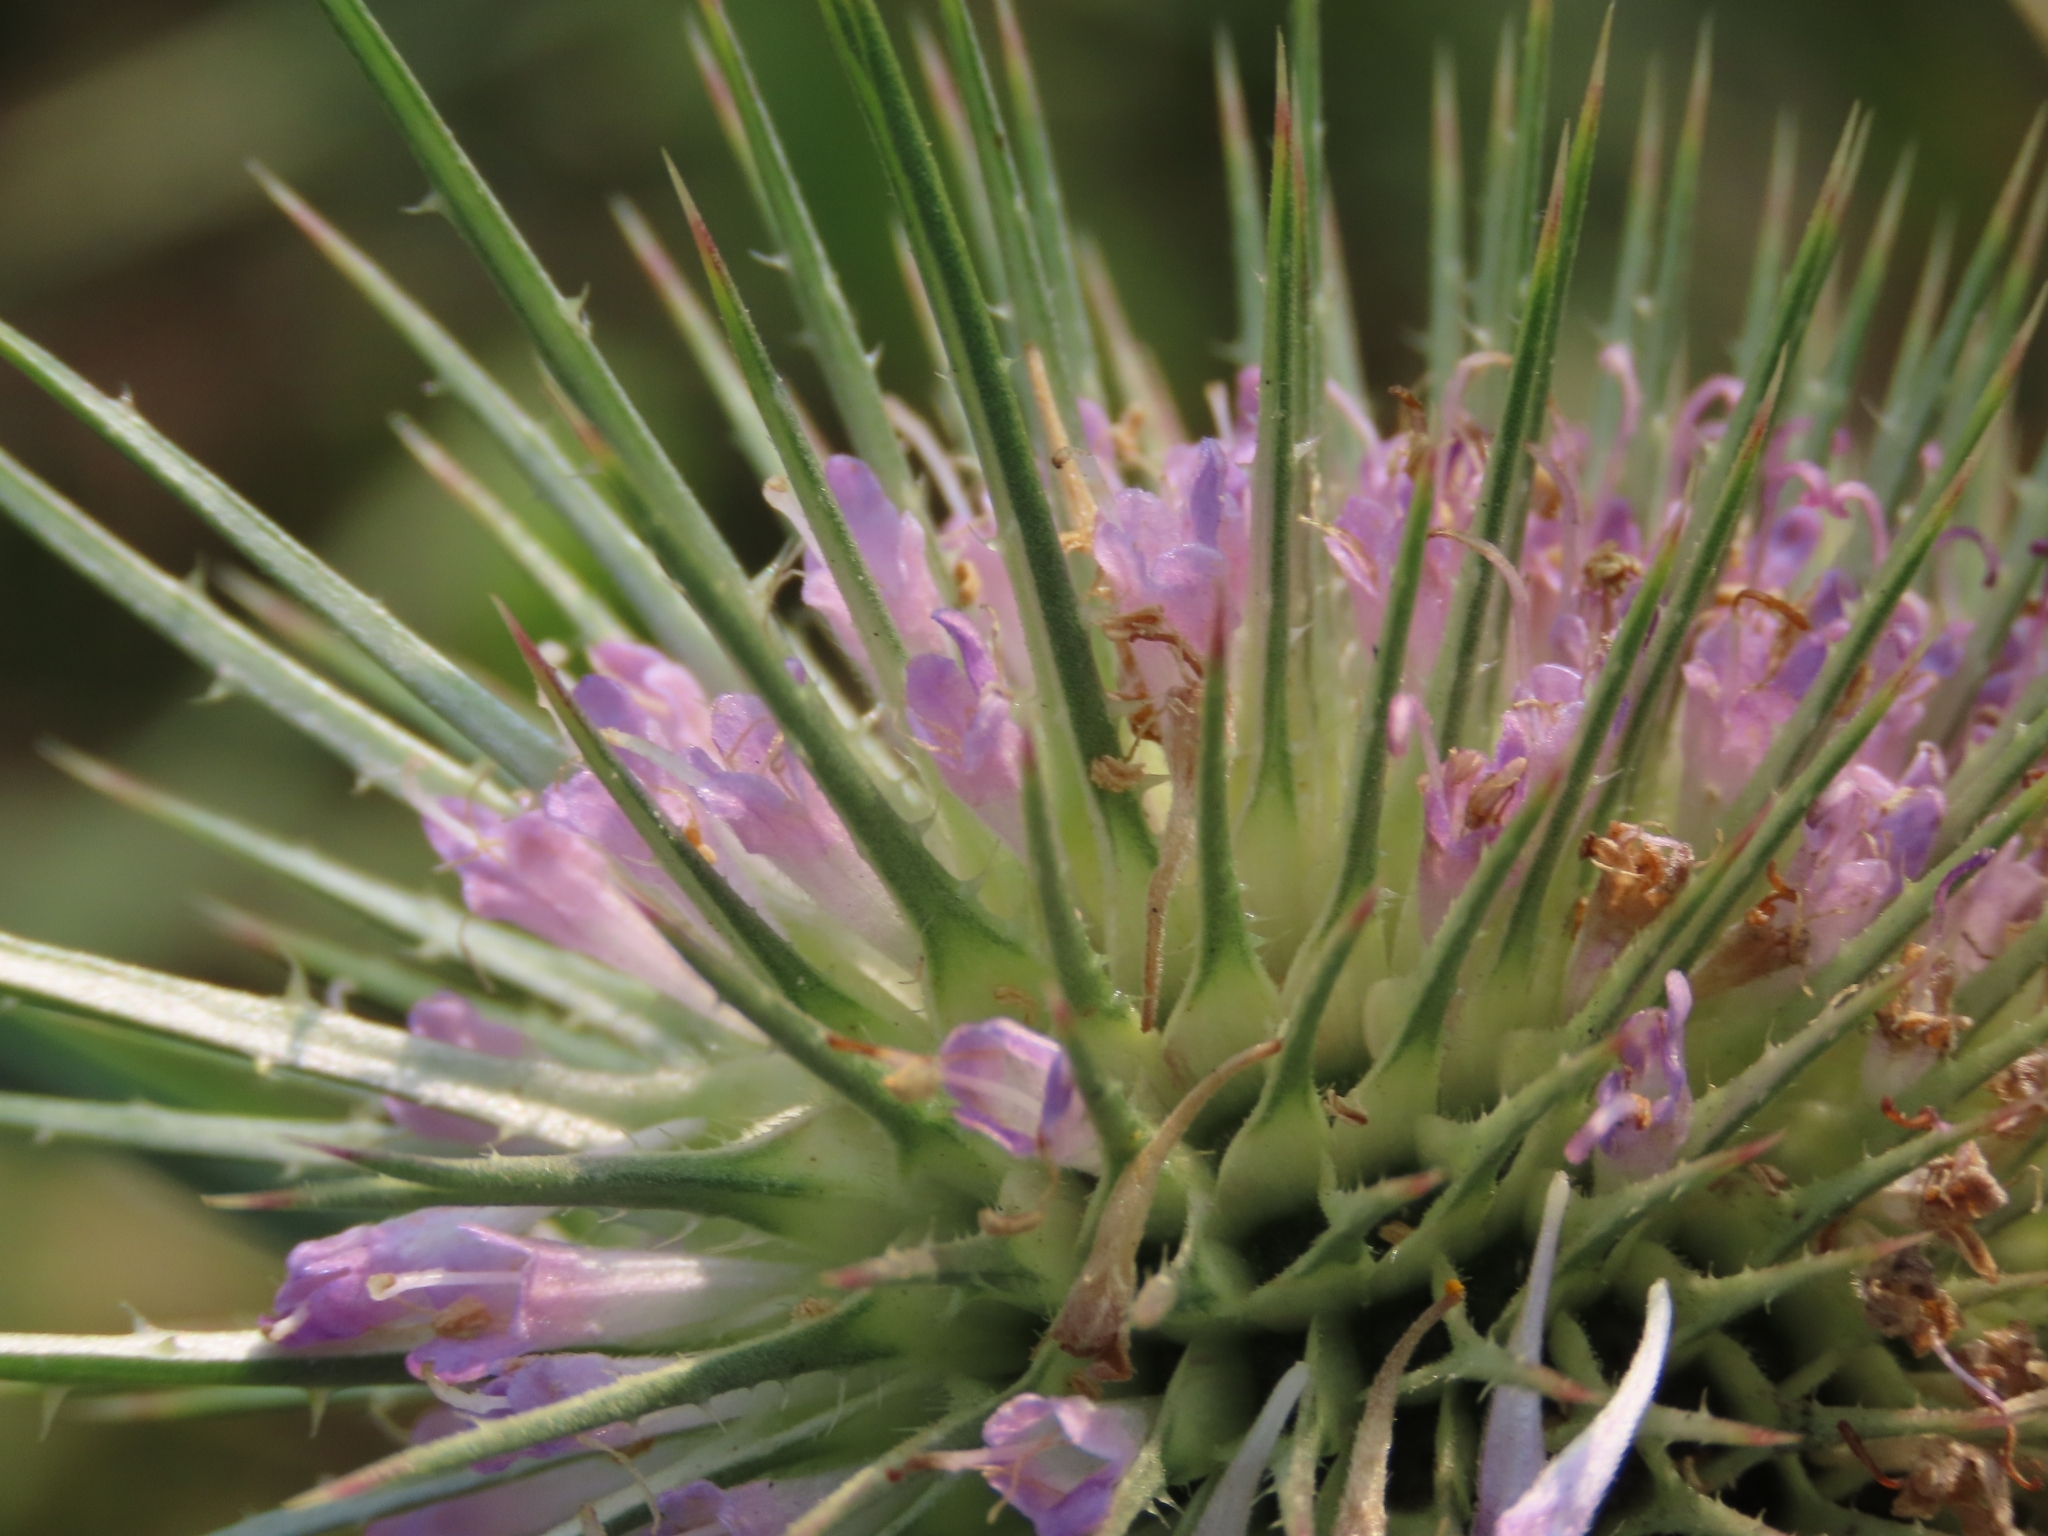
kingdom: Plantae
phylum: Tracheophyta
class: Magnoliopsida
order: Dipsacales
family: Caprifoliaceae
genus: Dipsacus
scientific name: Dipsacus fullonum
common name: Teasel
